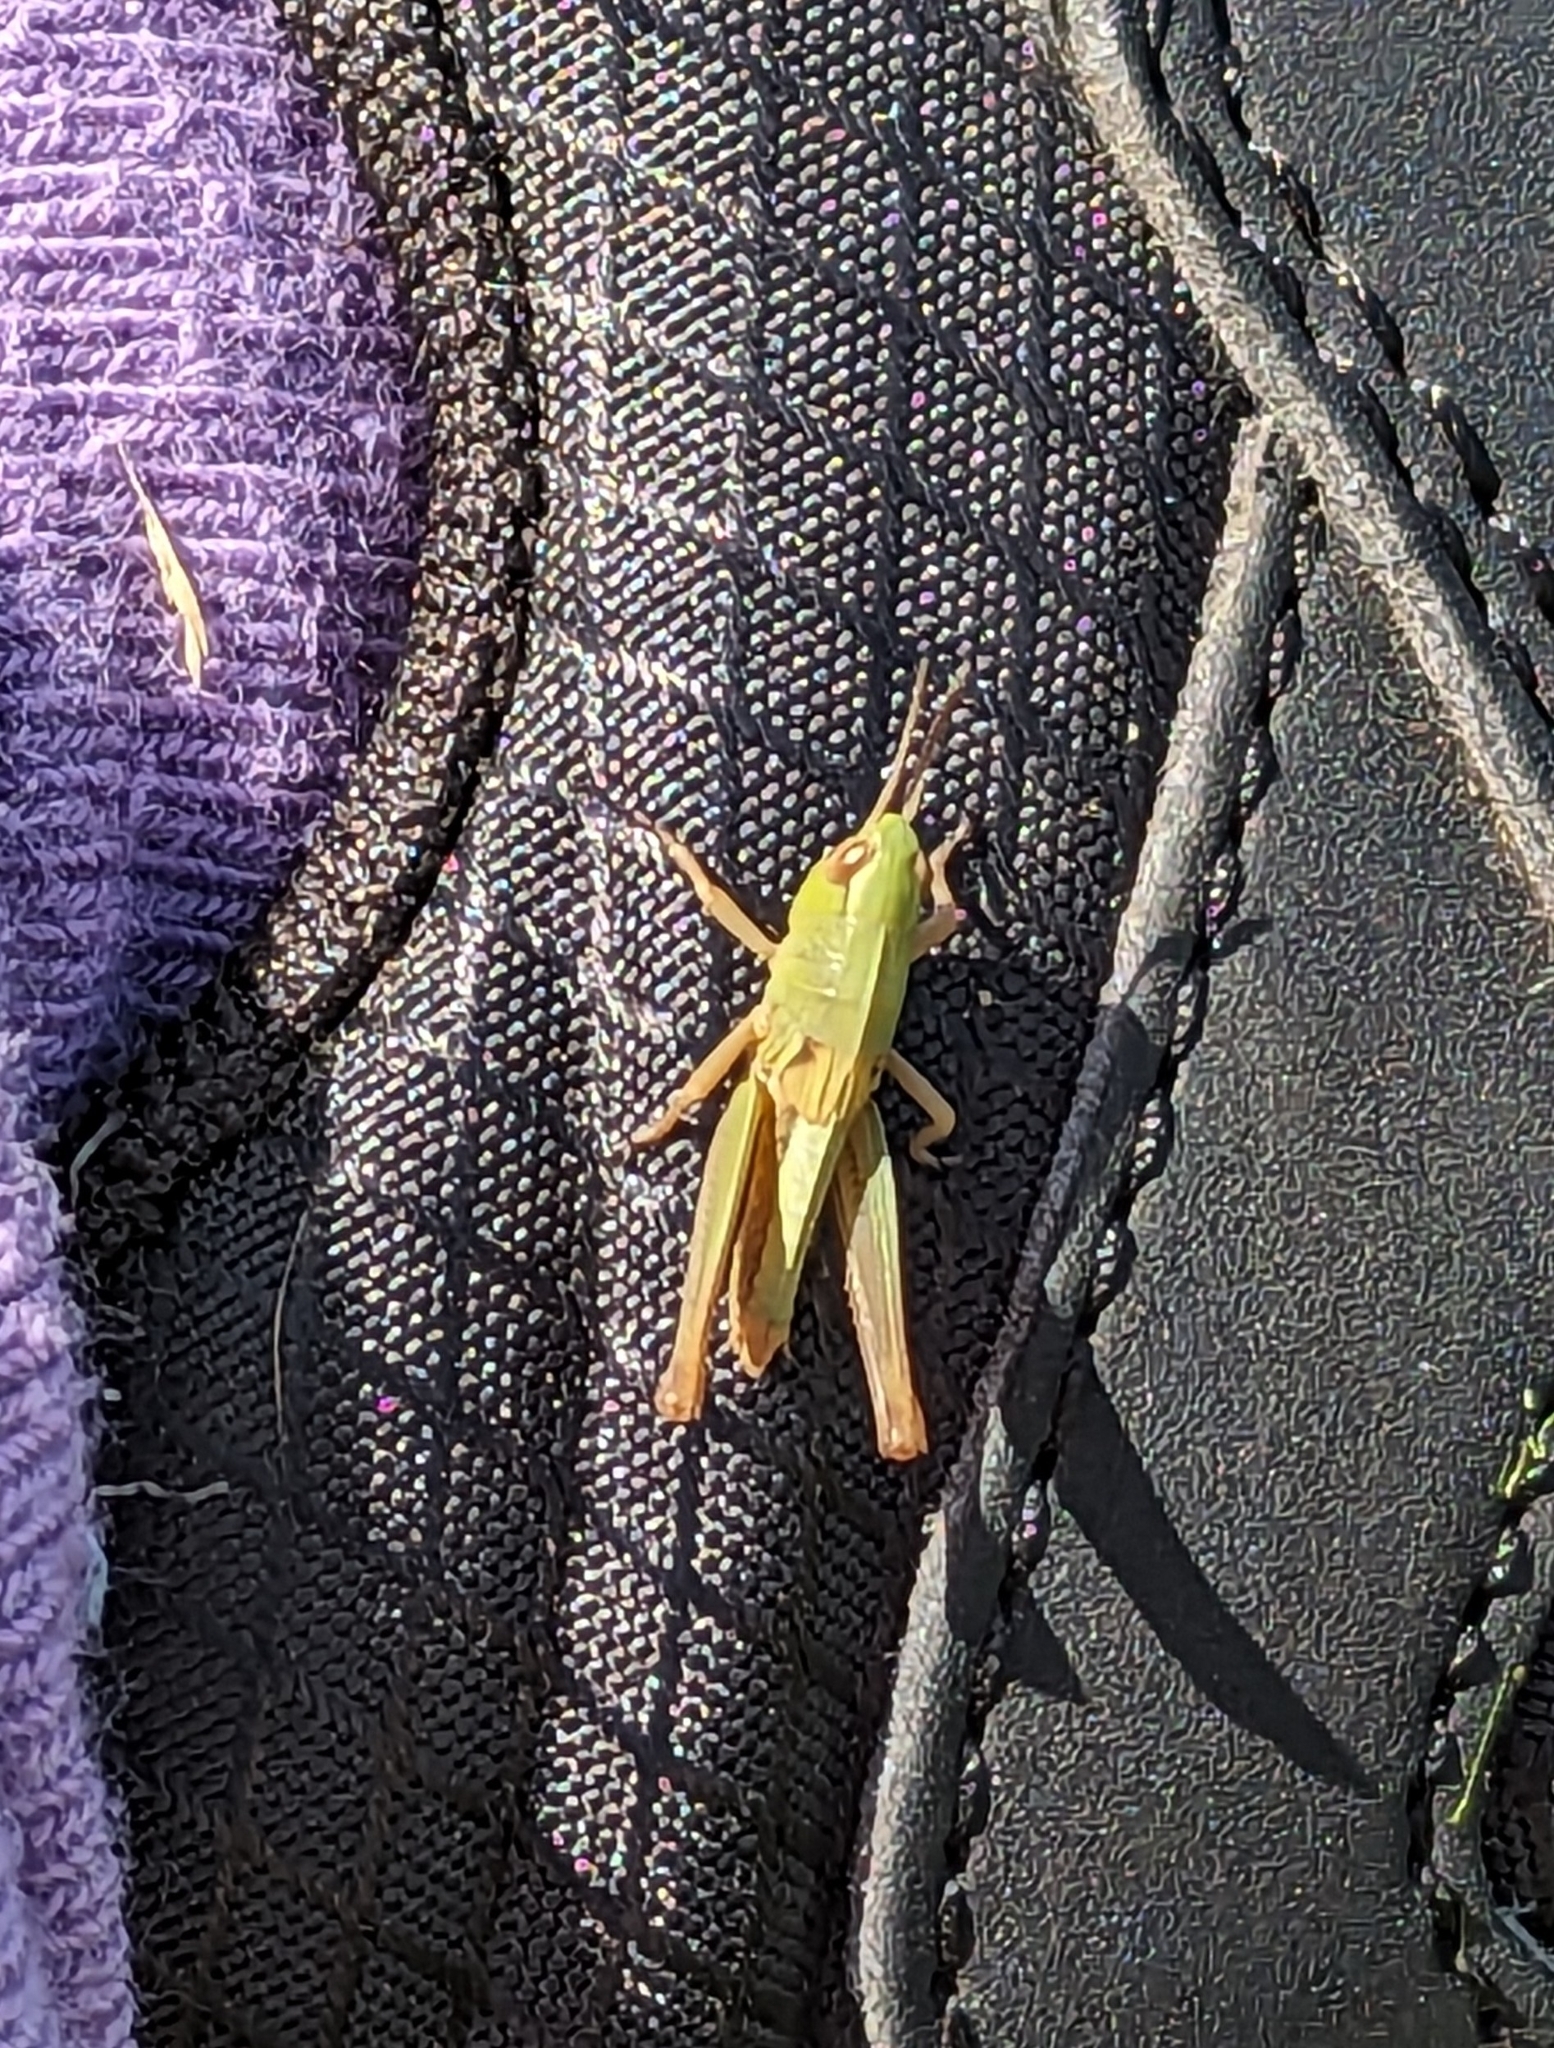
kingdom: Animalia
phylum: Arthropoda
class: Insecta
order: Orthoptera
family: Acrididae
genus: Pseudochorthippus
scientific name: Pseudochorthippus parallelus
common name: Meadow grasshopper
